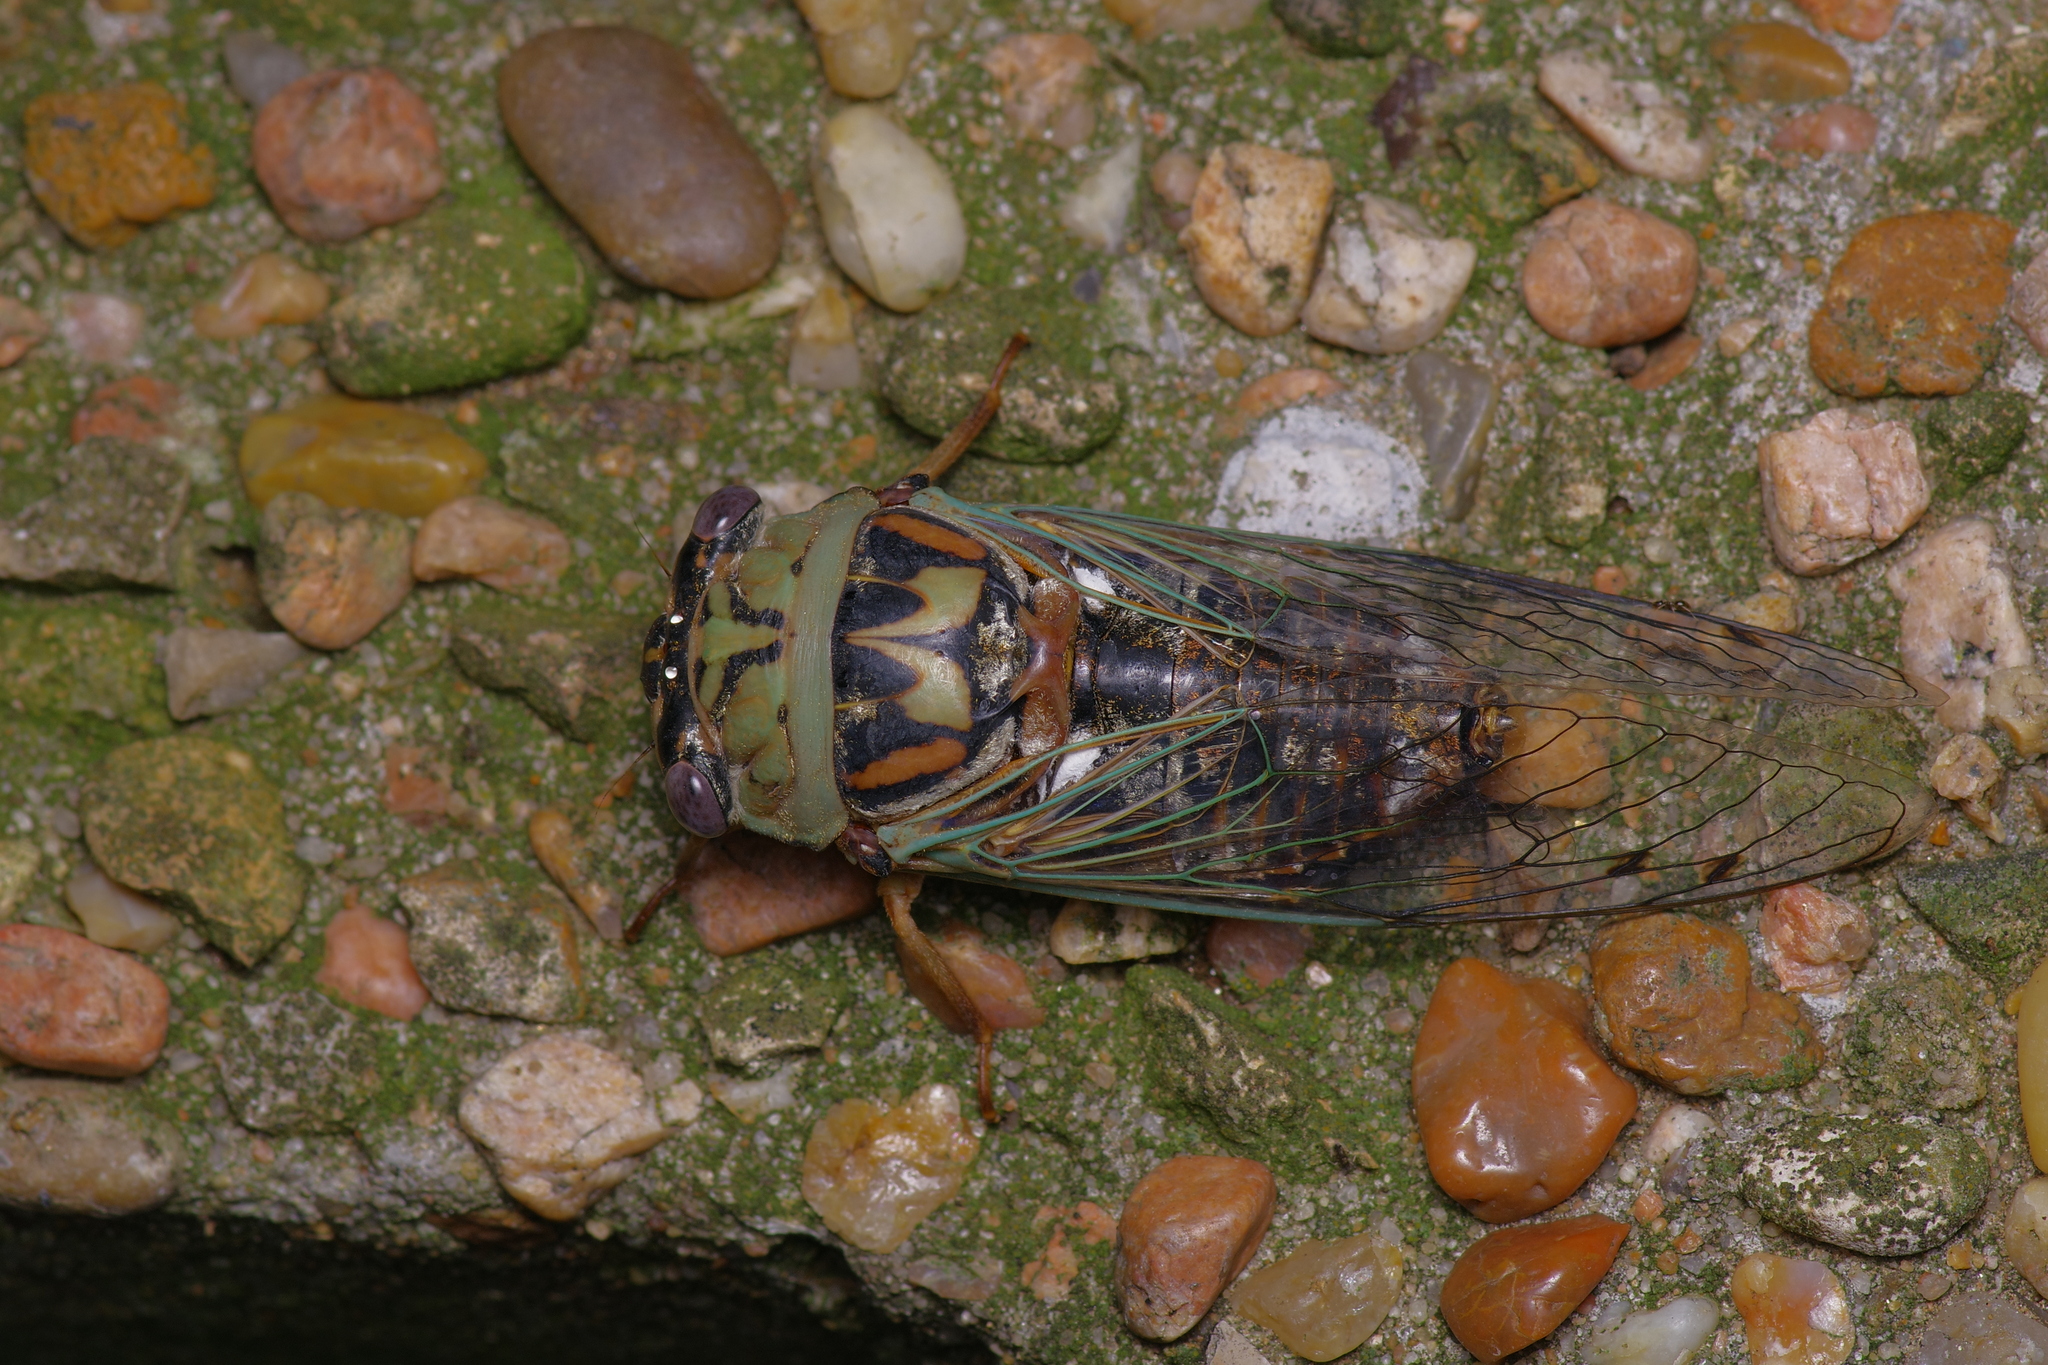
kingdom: Animalia
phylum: Arthropoda
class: Insecta
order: Hemiptera
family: Cicadidae
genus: Megatibicen
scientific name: Megatibicen resh
